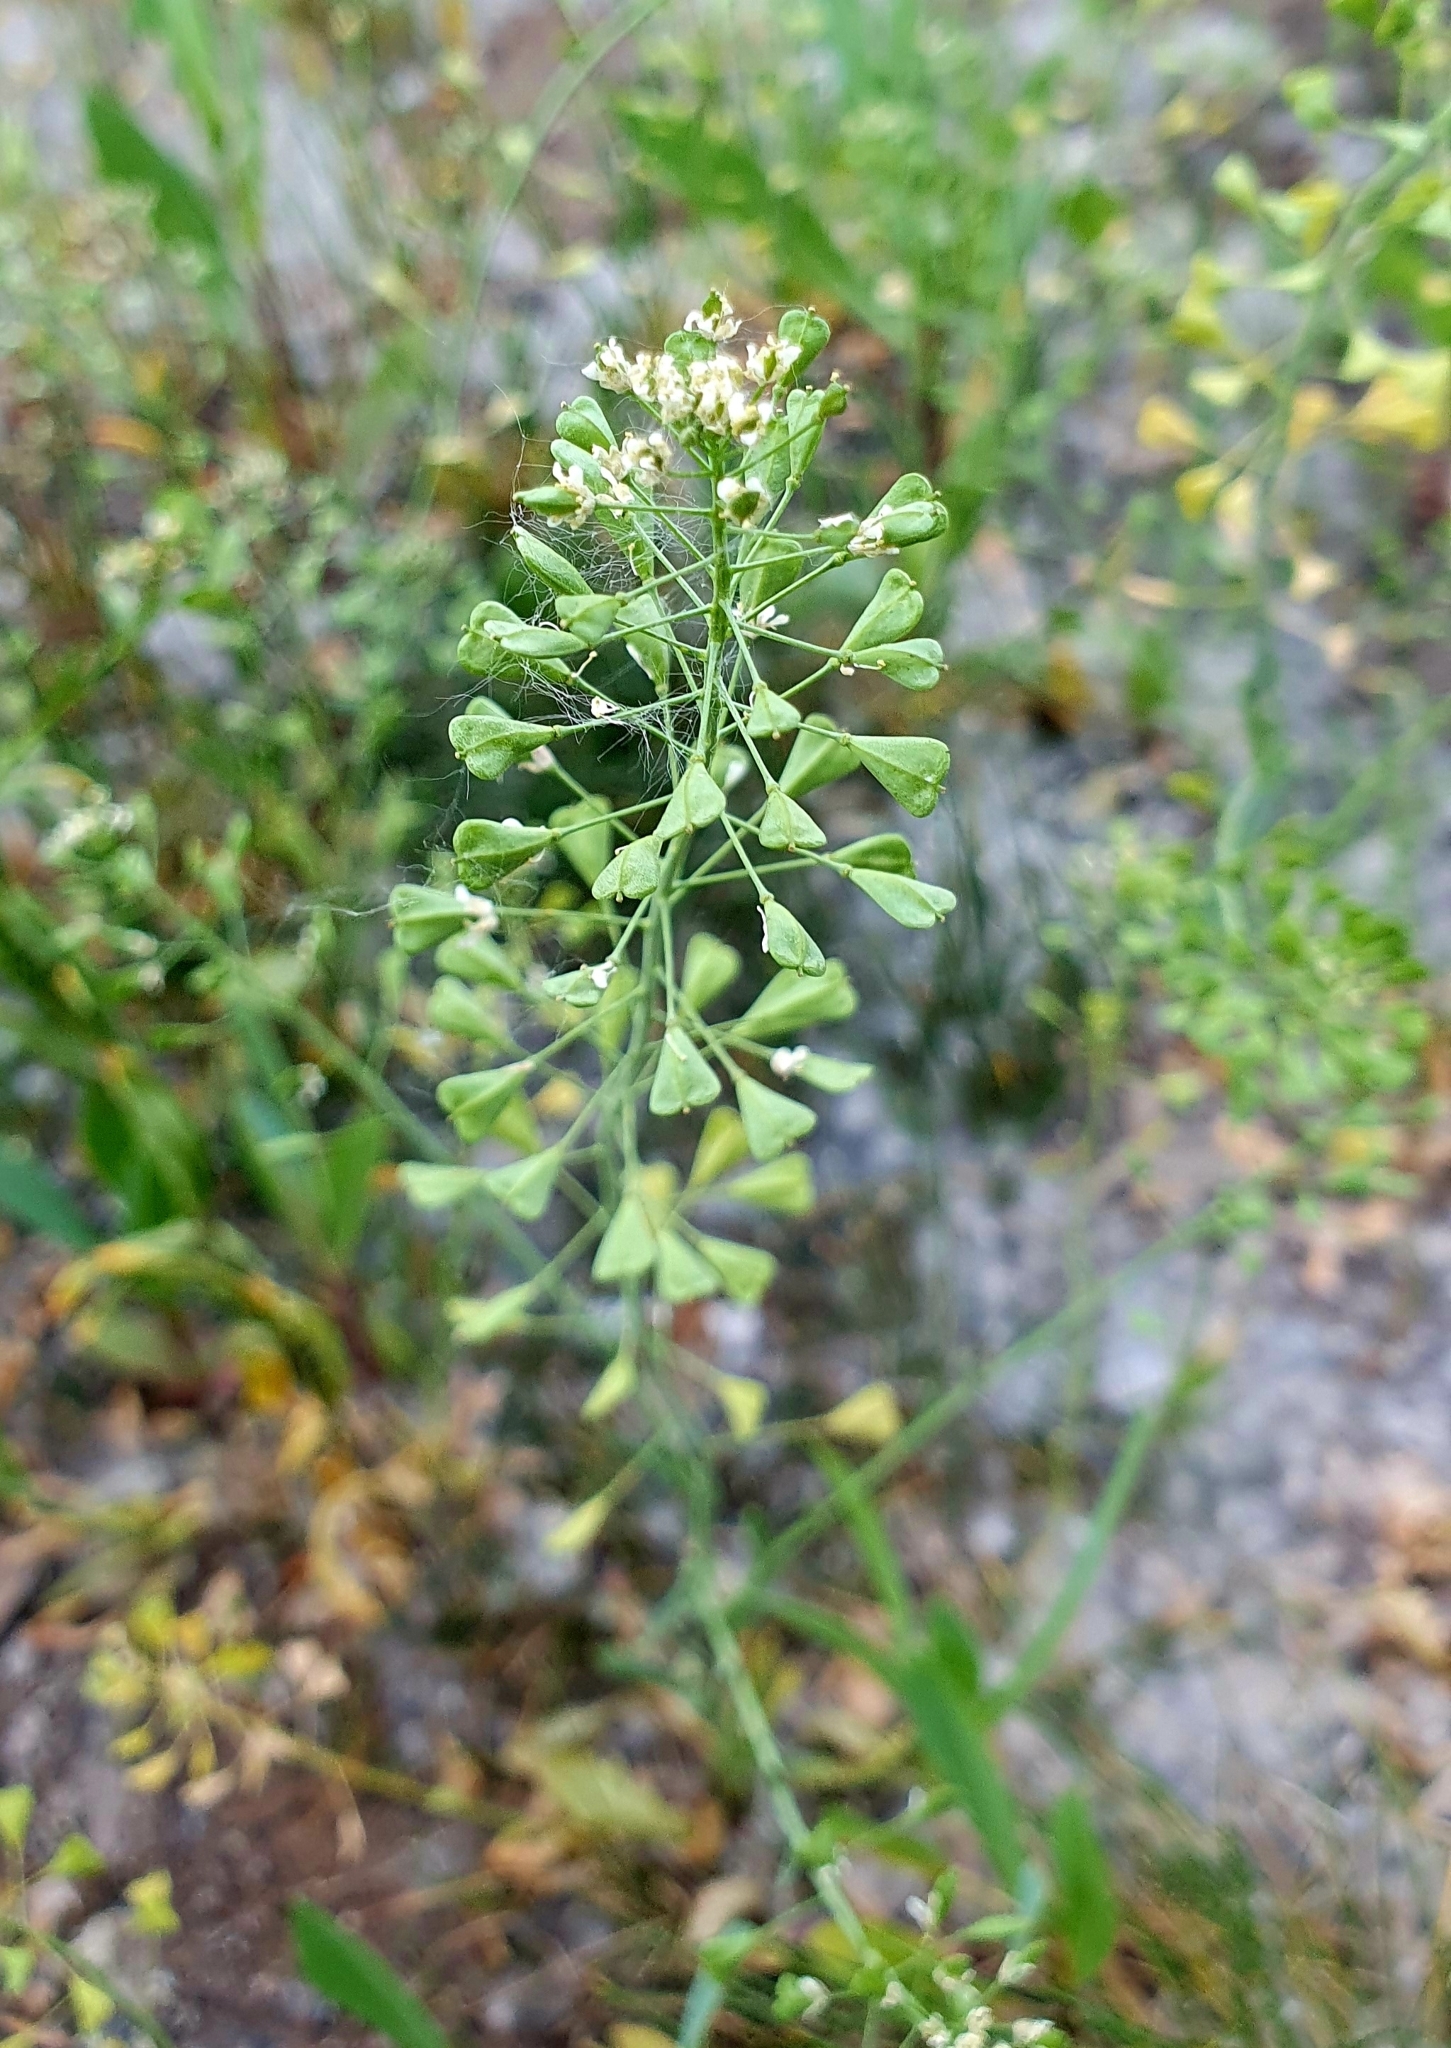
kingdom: Plantae
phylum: Tracheophyta
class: Magnoliopsida
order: Brassicales
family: Brassicaceae
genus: Capsella
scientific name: Capsella bursa-pastoris
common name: Shepherd's purse
